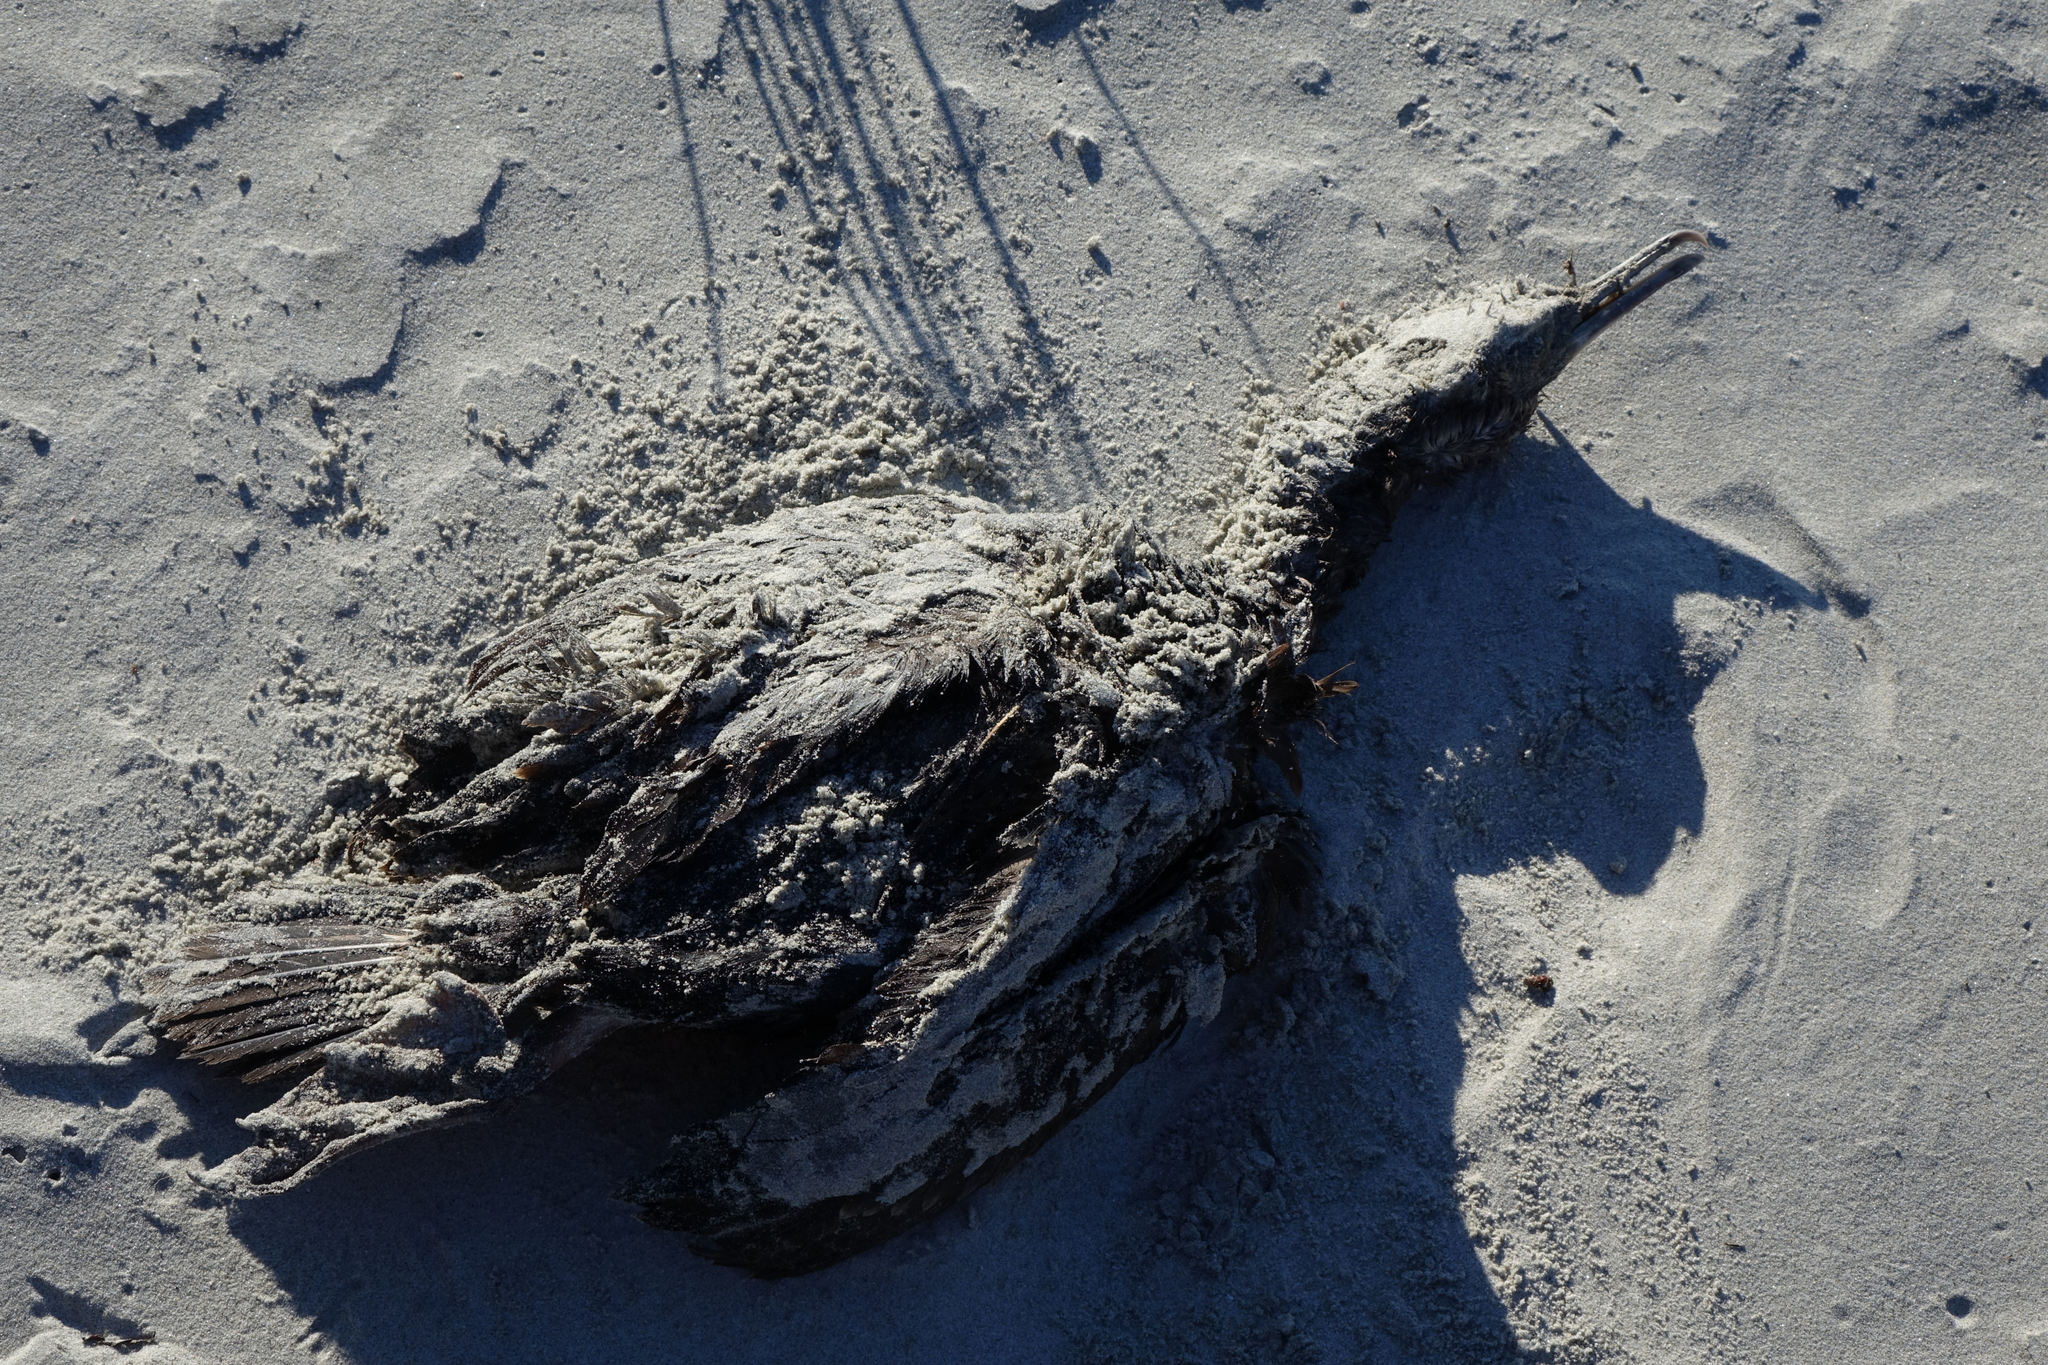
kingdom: Animalia
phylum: Chordata
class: Aves
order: Suliformes
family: Phalacrocoracidae
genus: Leucocarbo
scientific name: Leucocarbo chalconotus
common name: Stewart shag
